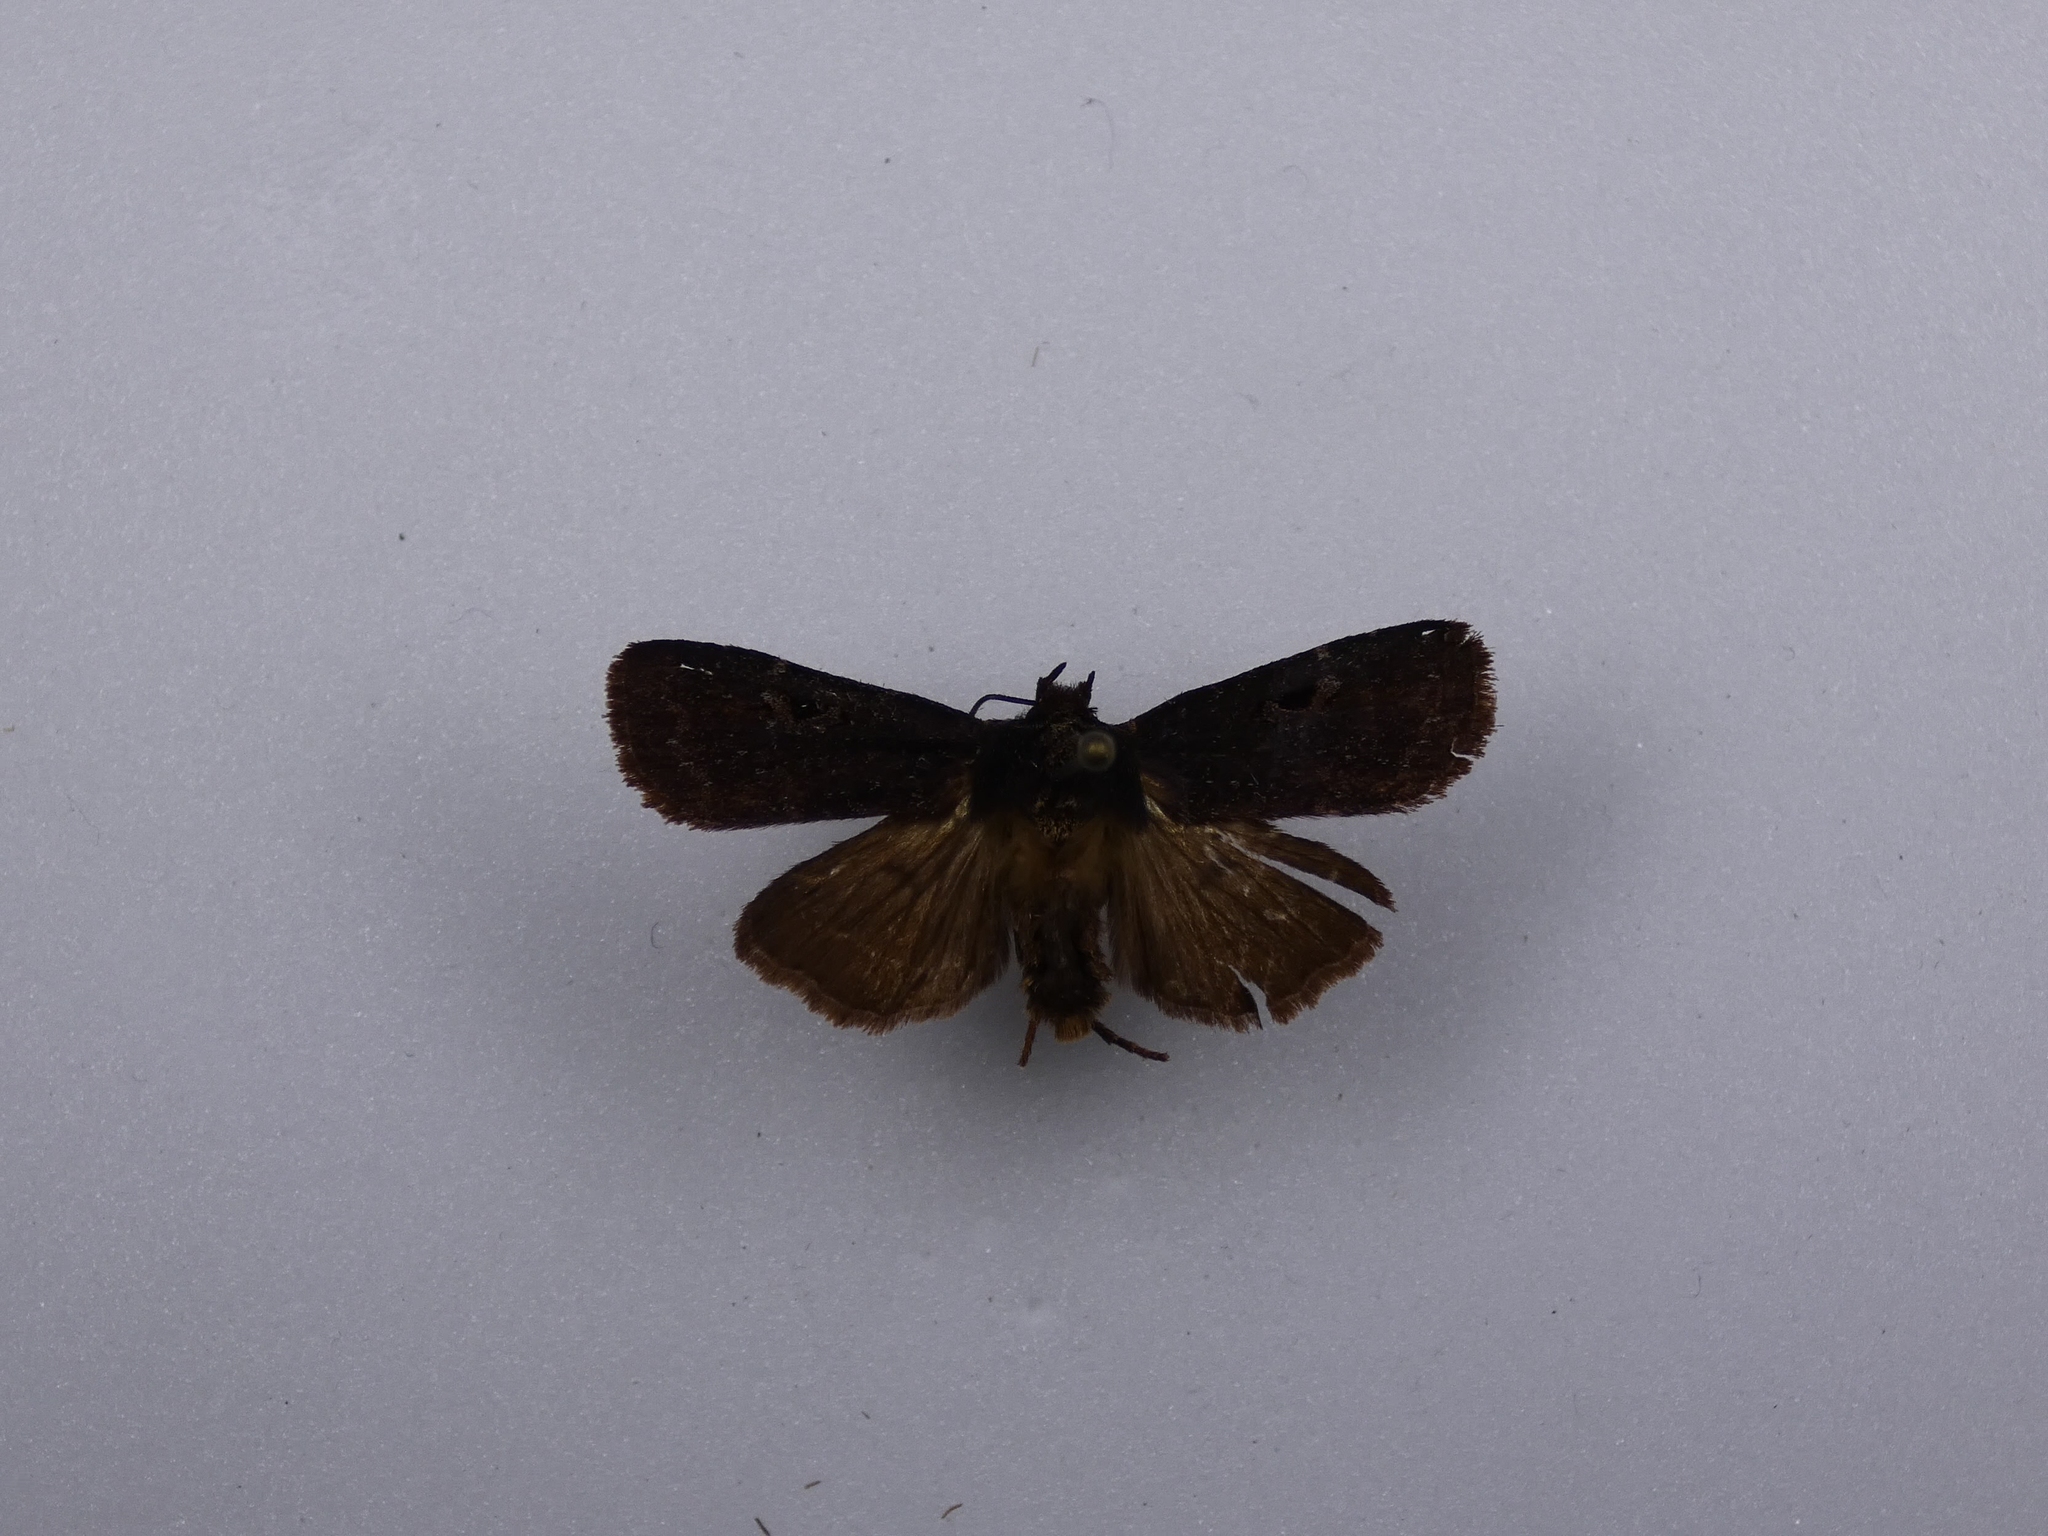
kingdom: Animalia
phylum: Arthropoda
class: Insecta
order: Lepidoptera
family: Noctuidae
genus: Austramathes
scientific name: Austramathes purpurea
